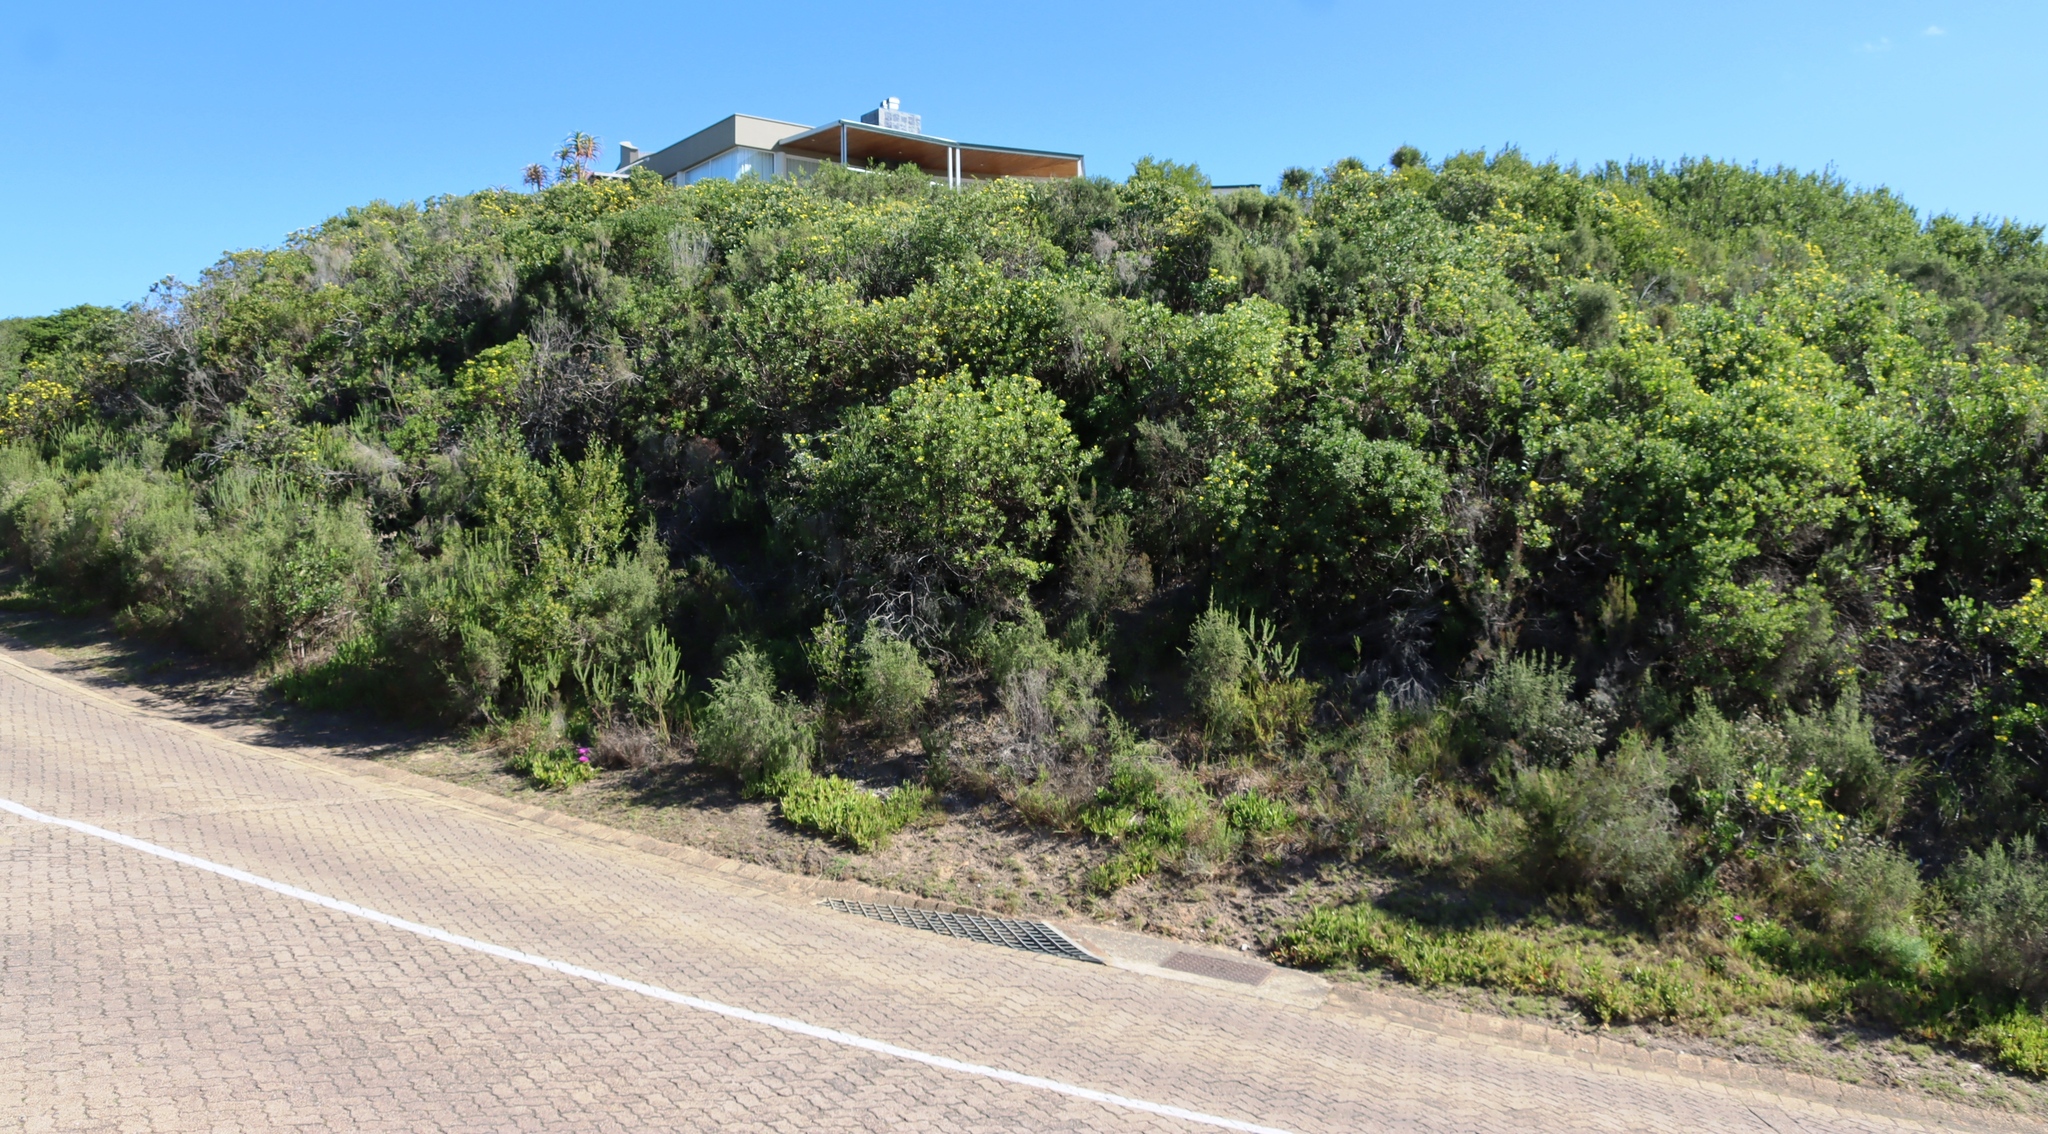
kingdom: Plantae
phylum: Tracheophyta
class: Magnoliopsida
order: Asterales
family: Asteraceae
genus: Osteospermum
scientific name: Osteospermum moniliferum
